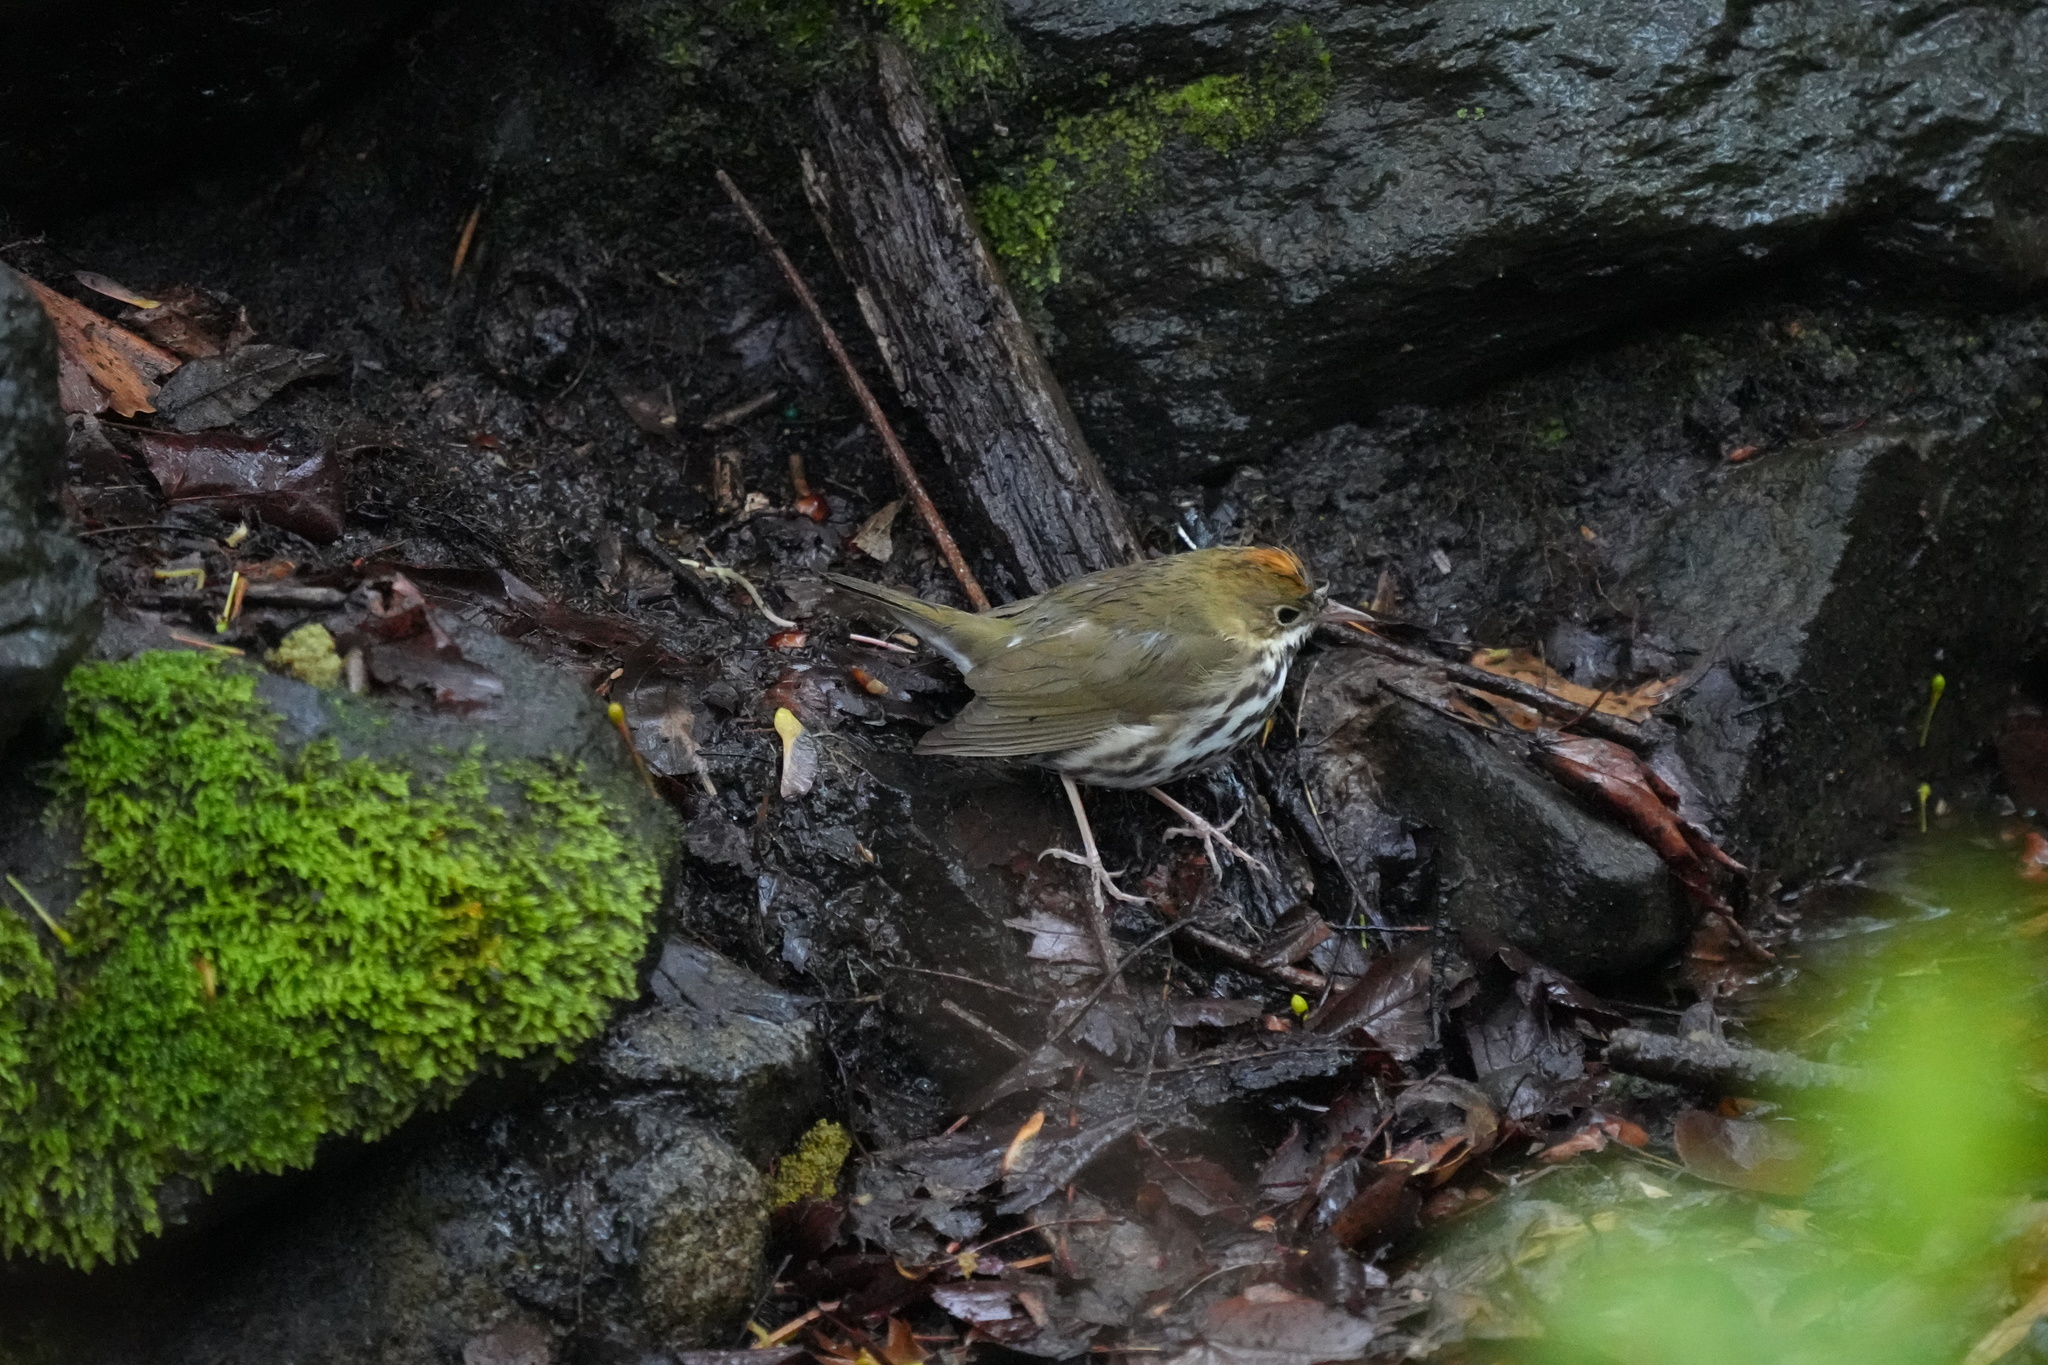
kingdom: Animalia
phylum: Chordata
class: Aves
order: Passeriformes
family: Parulidae
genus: Seiurus
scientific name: Seiurus aurocapilla
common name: Ovenbird
